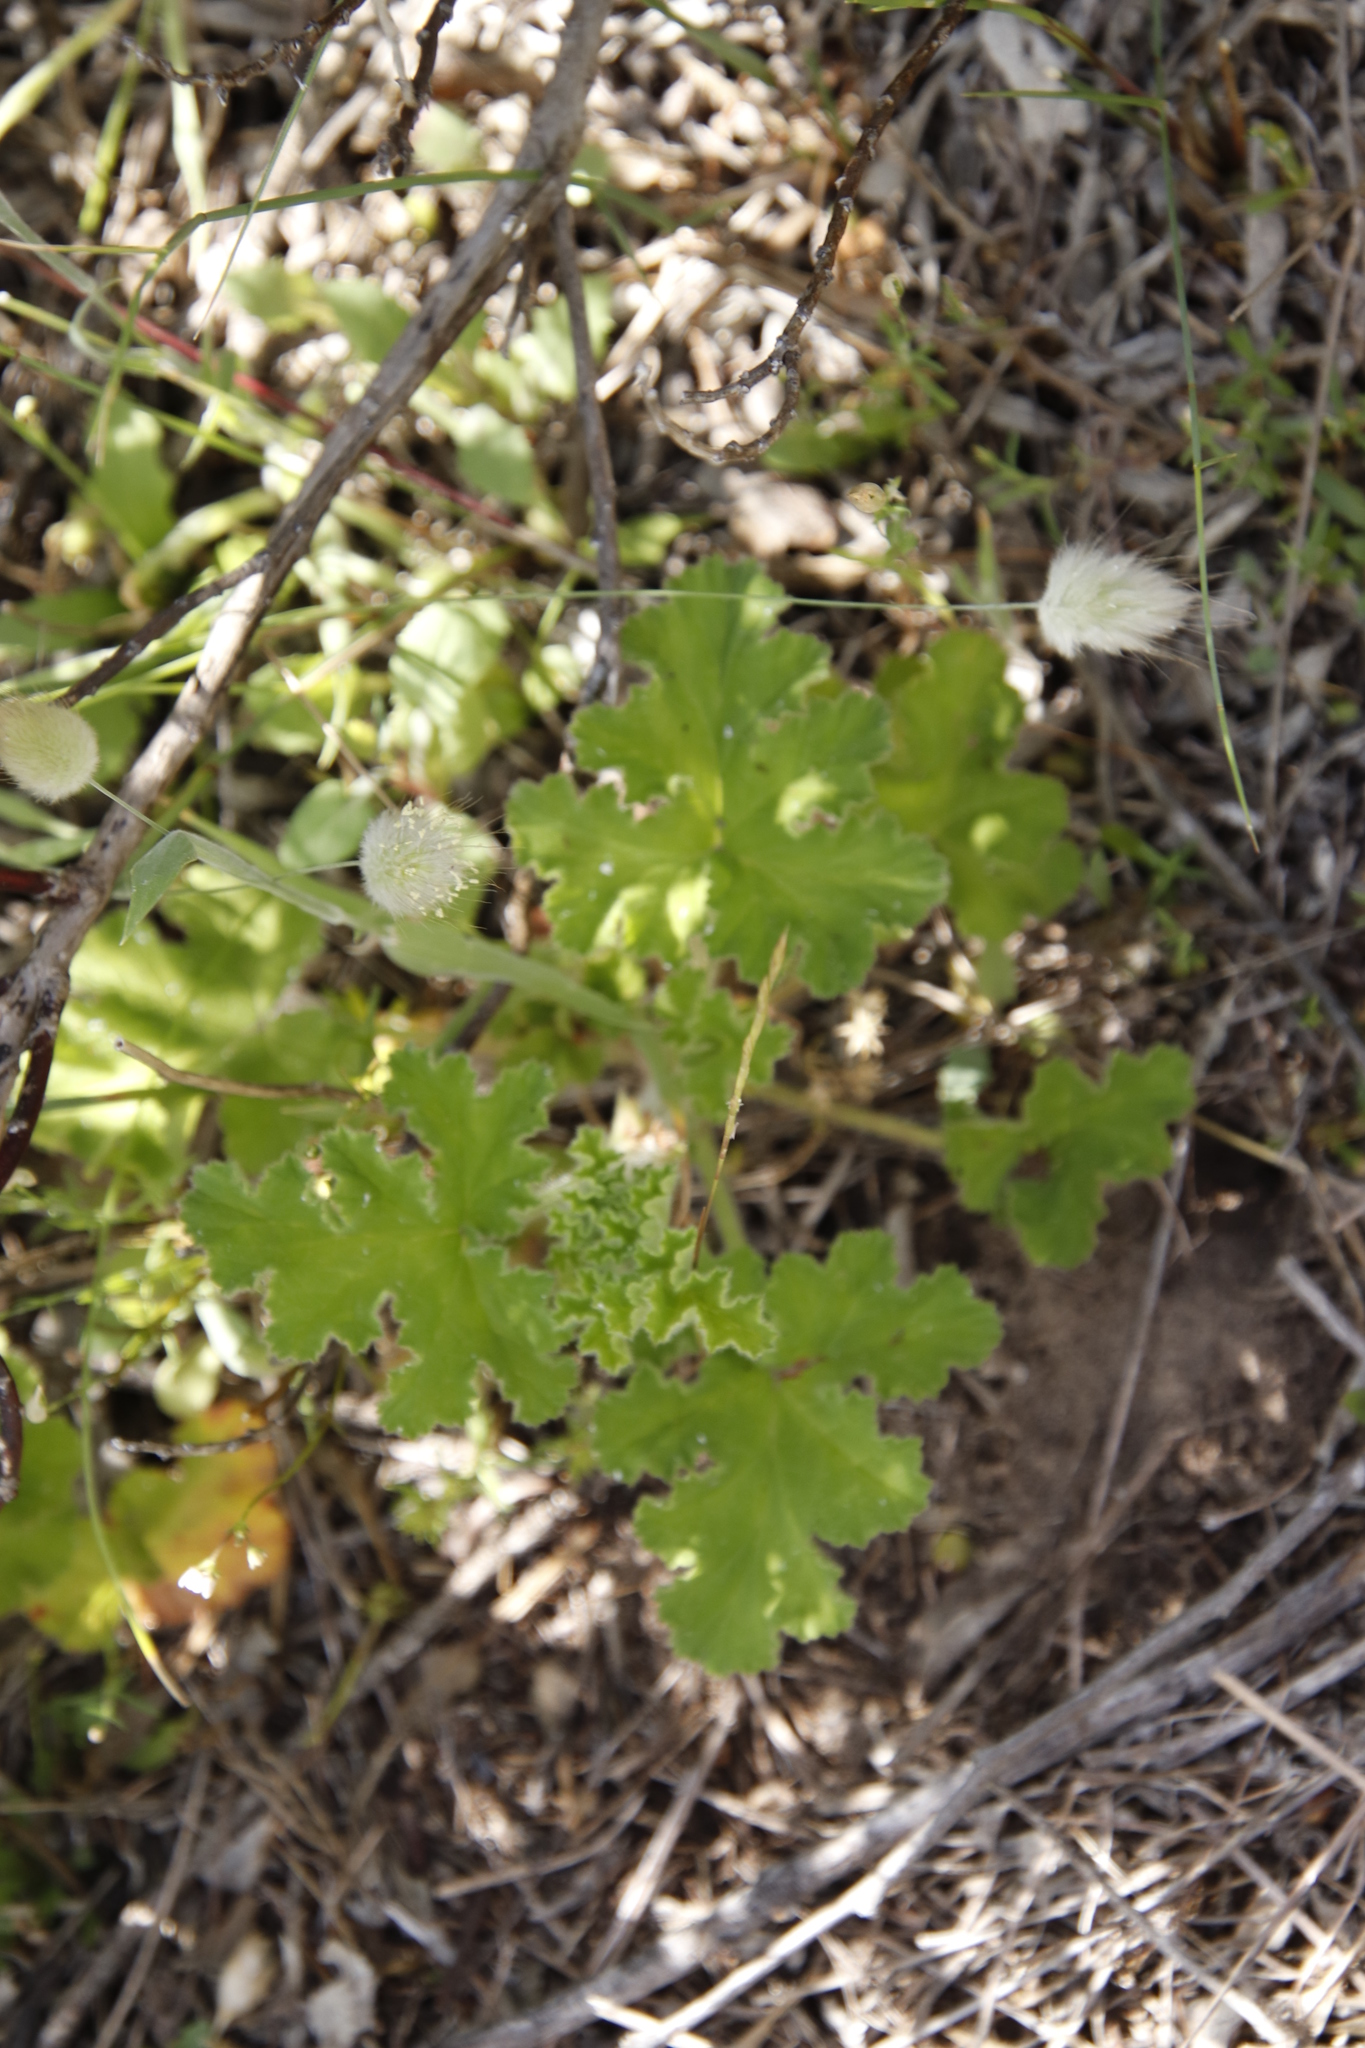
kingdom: Plantae
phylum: Tracheophyta
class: Magnoliopsida
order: Geraniales
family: Geraniaceae
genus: Pelargonium
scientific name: Pelargonium capitatum
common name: Rose scented geranium
